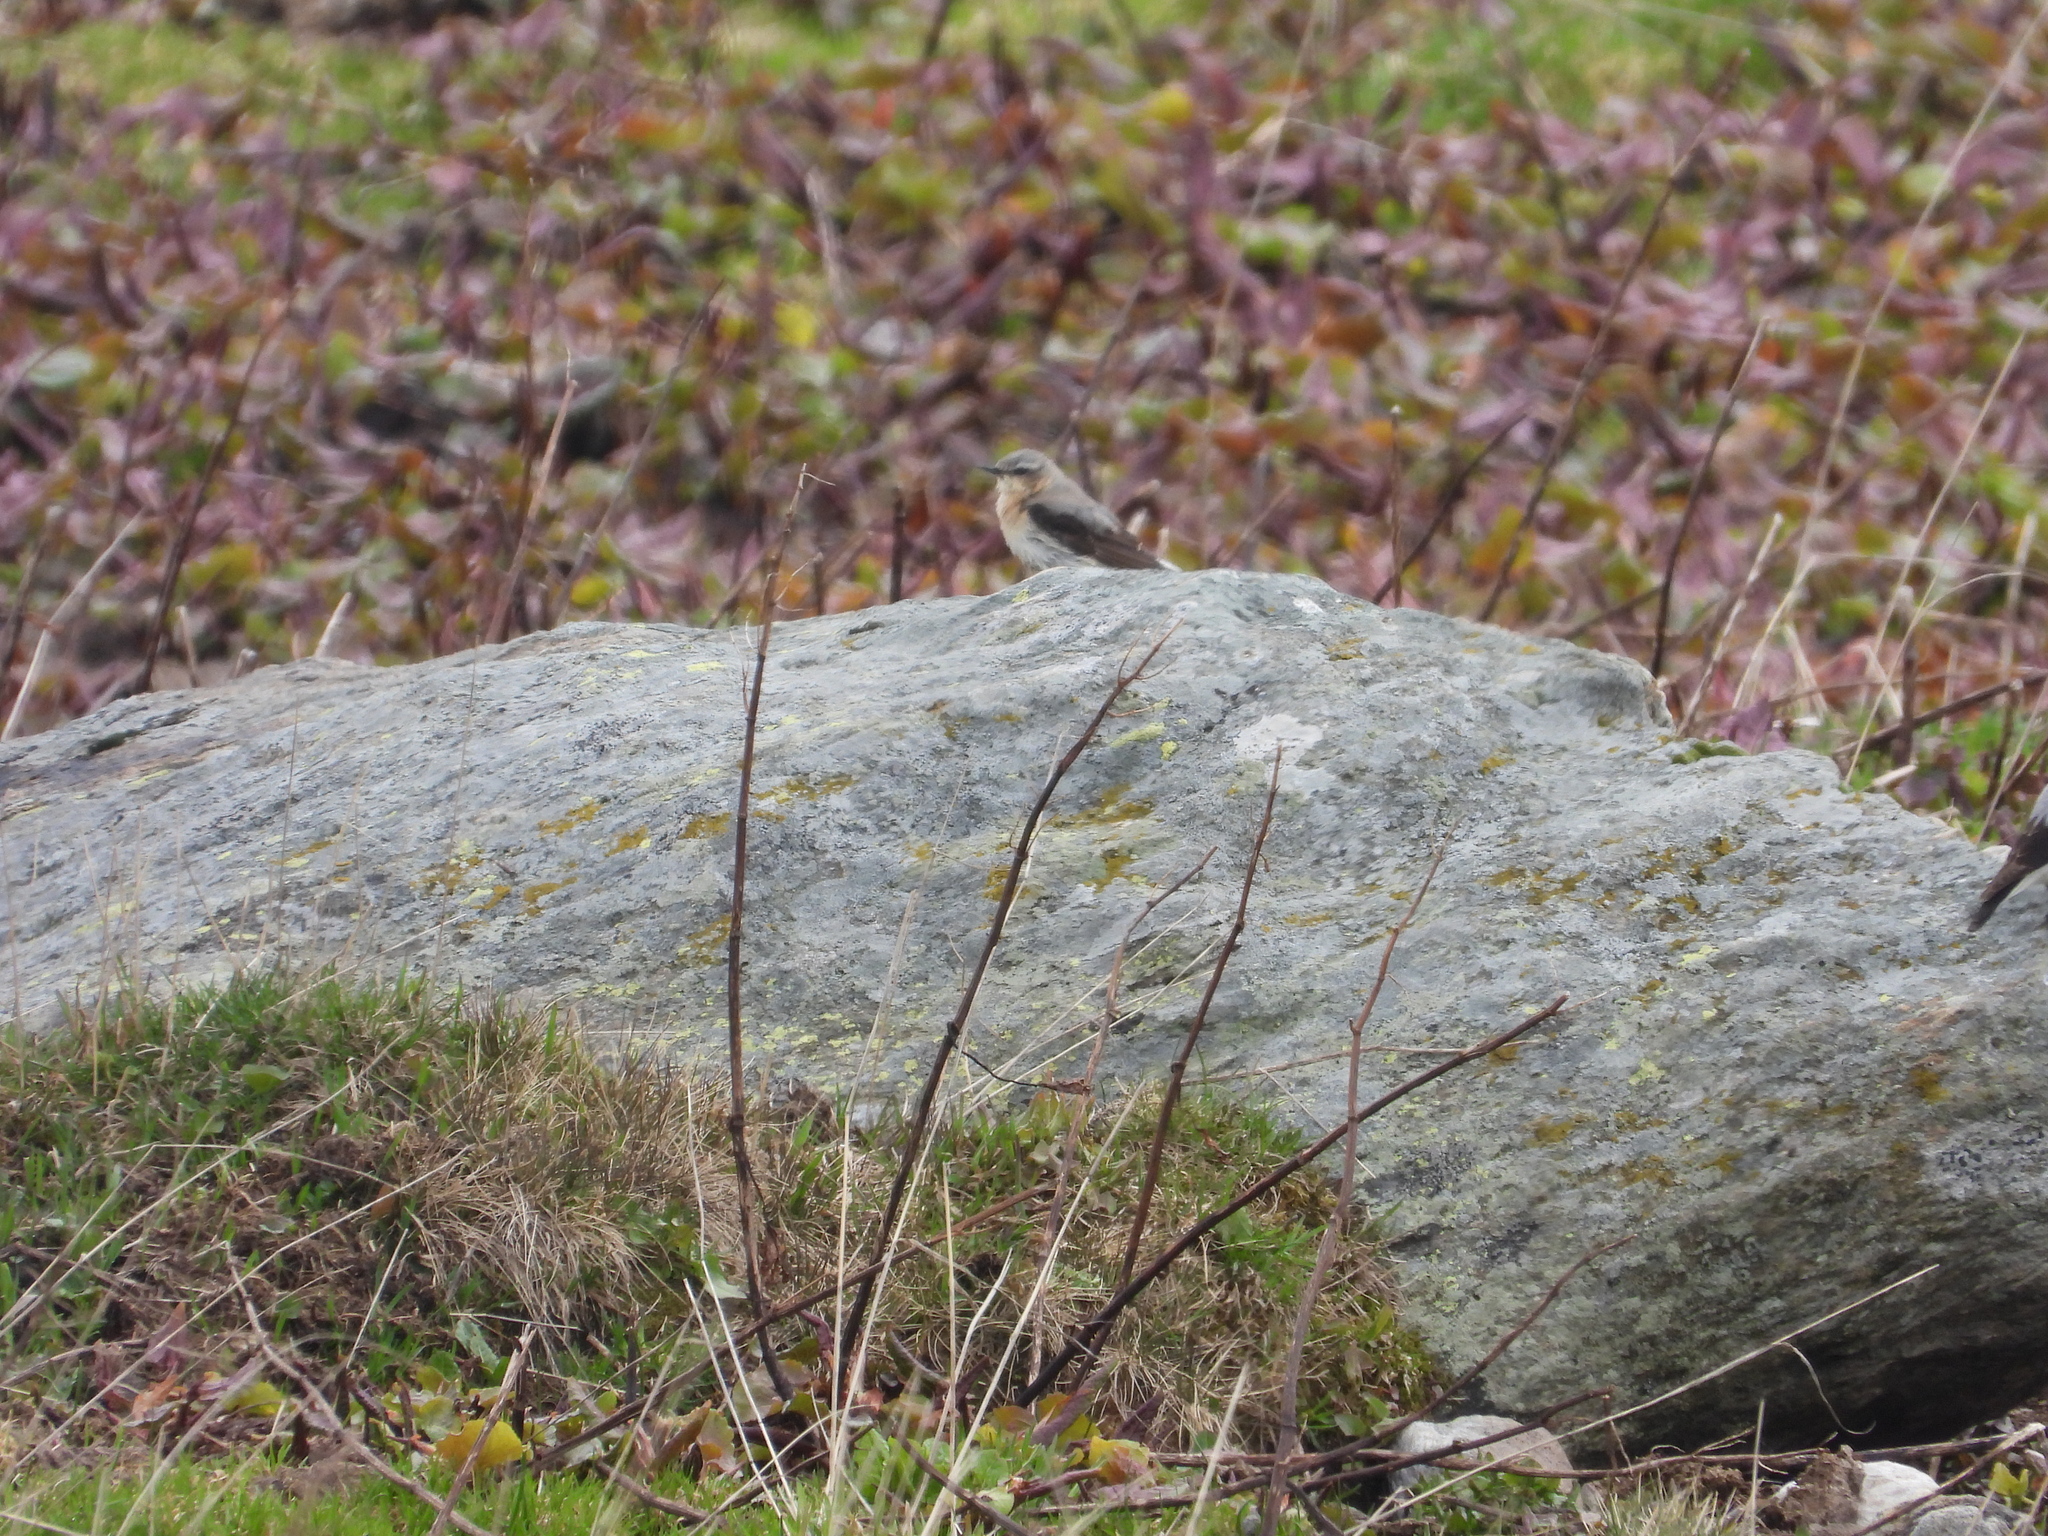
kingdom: Animalia
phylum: Chordata
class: Aves
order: Passeriformes
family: Muscicapidae
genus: Oenanthe
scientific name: Oenanthe oenanthe
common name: Northern wheatear
